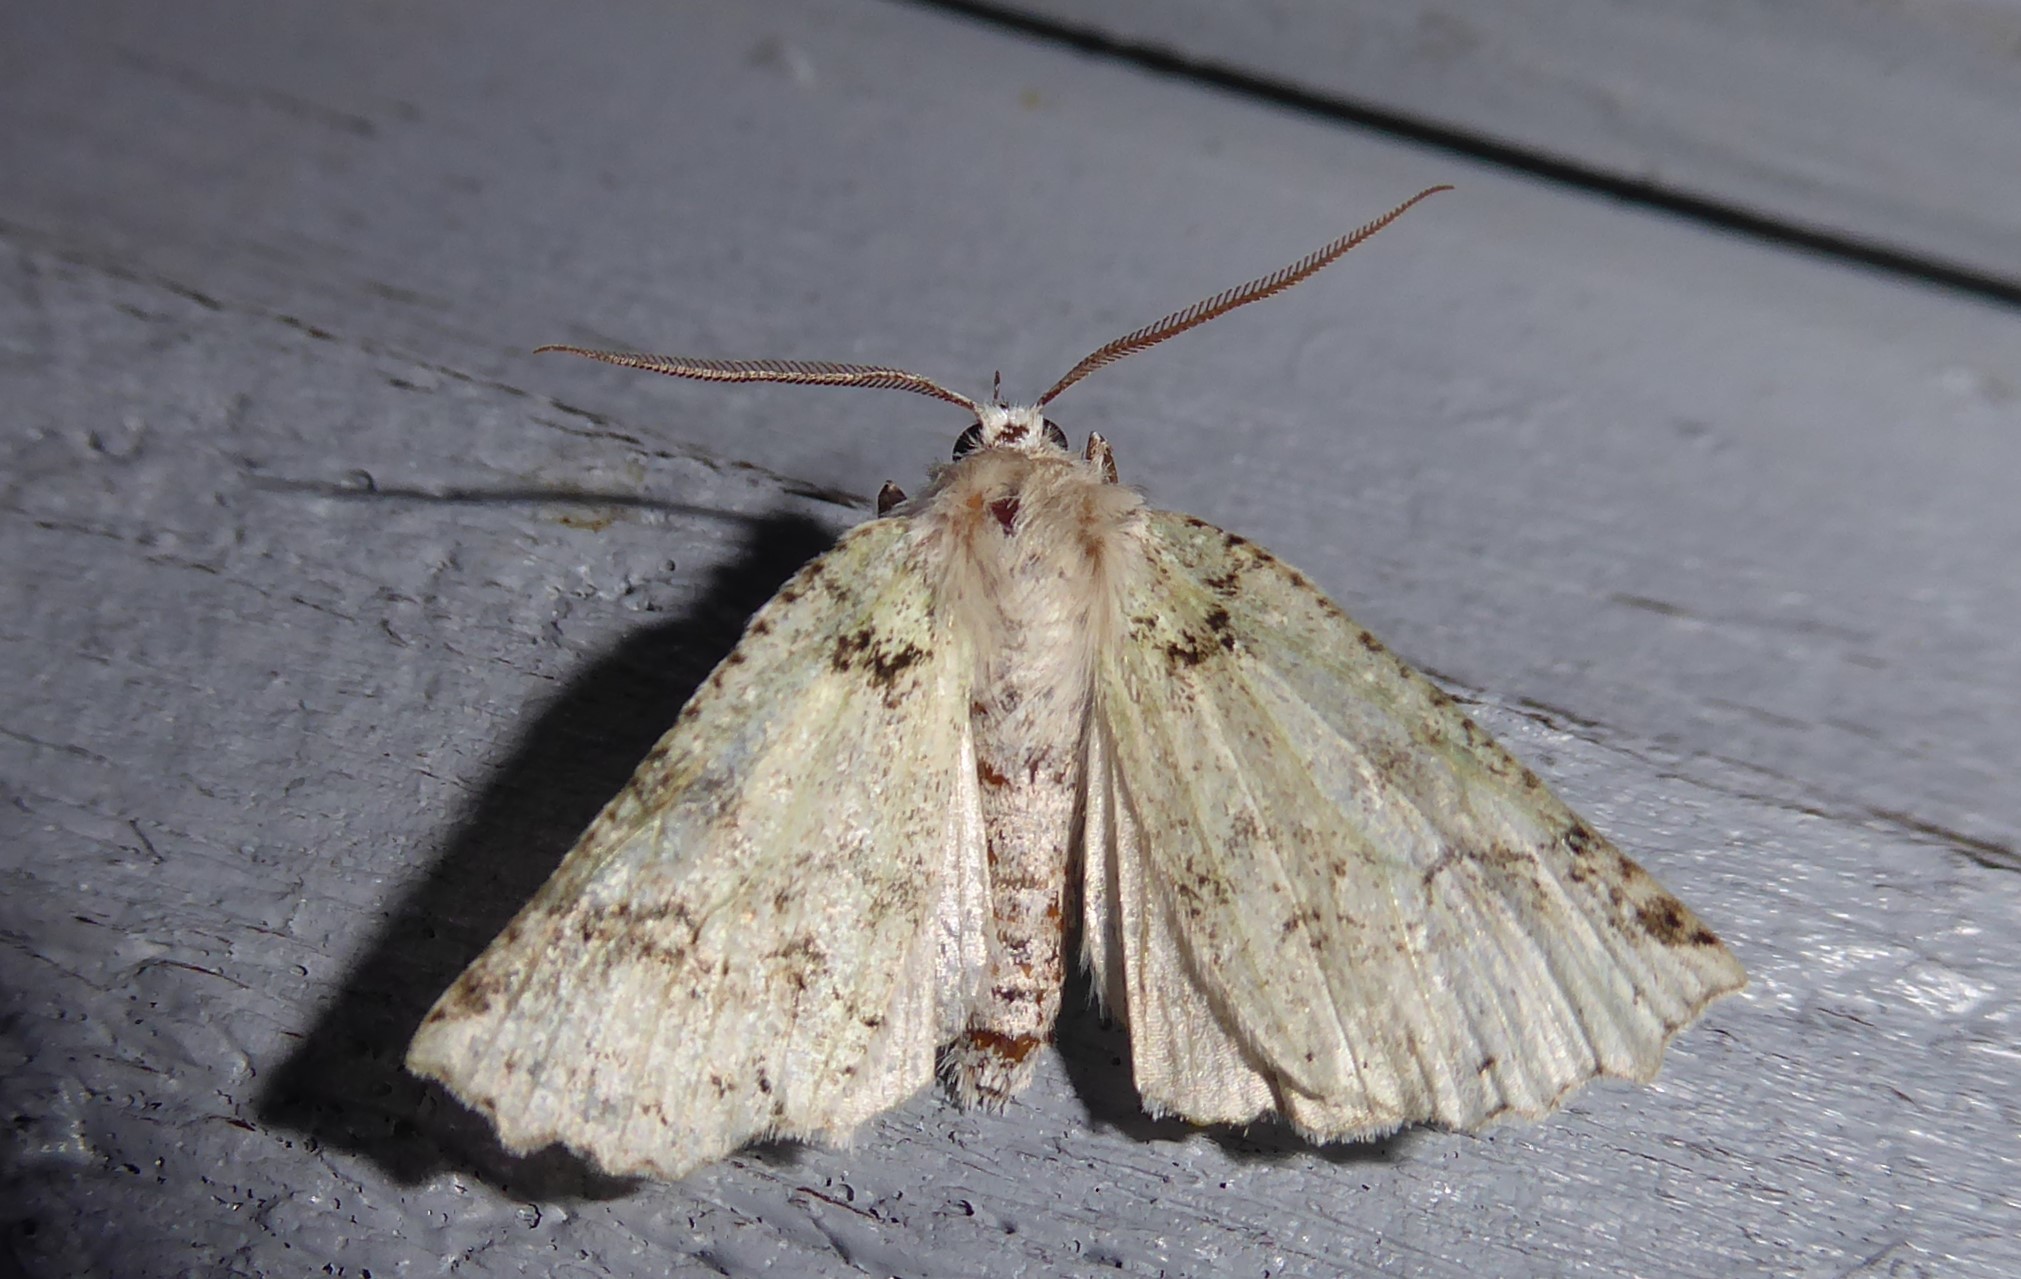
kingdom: Animalia
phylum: Arthropoda
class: Insecta
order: Lepidoptera
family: Geometridae
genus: Declana
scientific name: Declana floccosa
